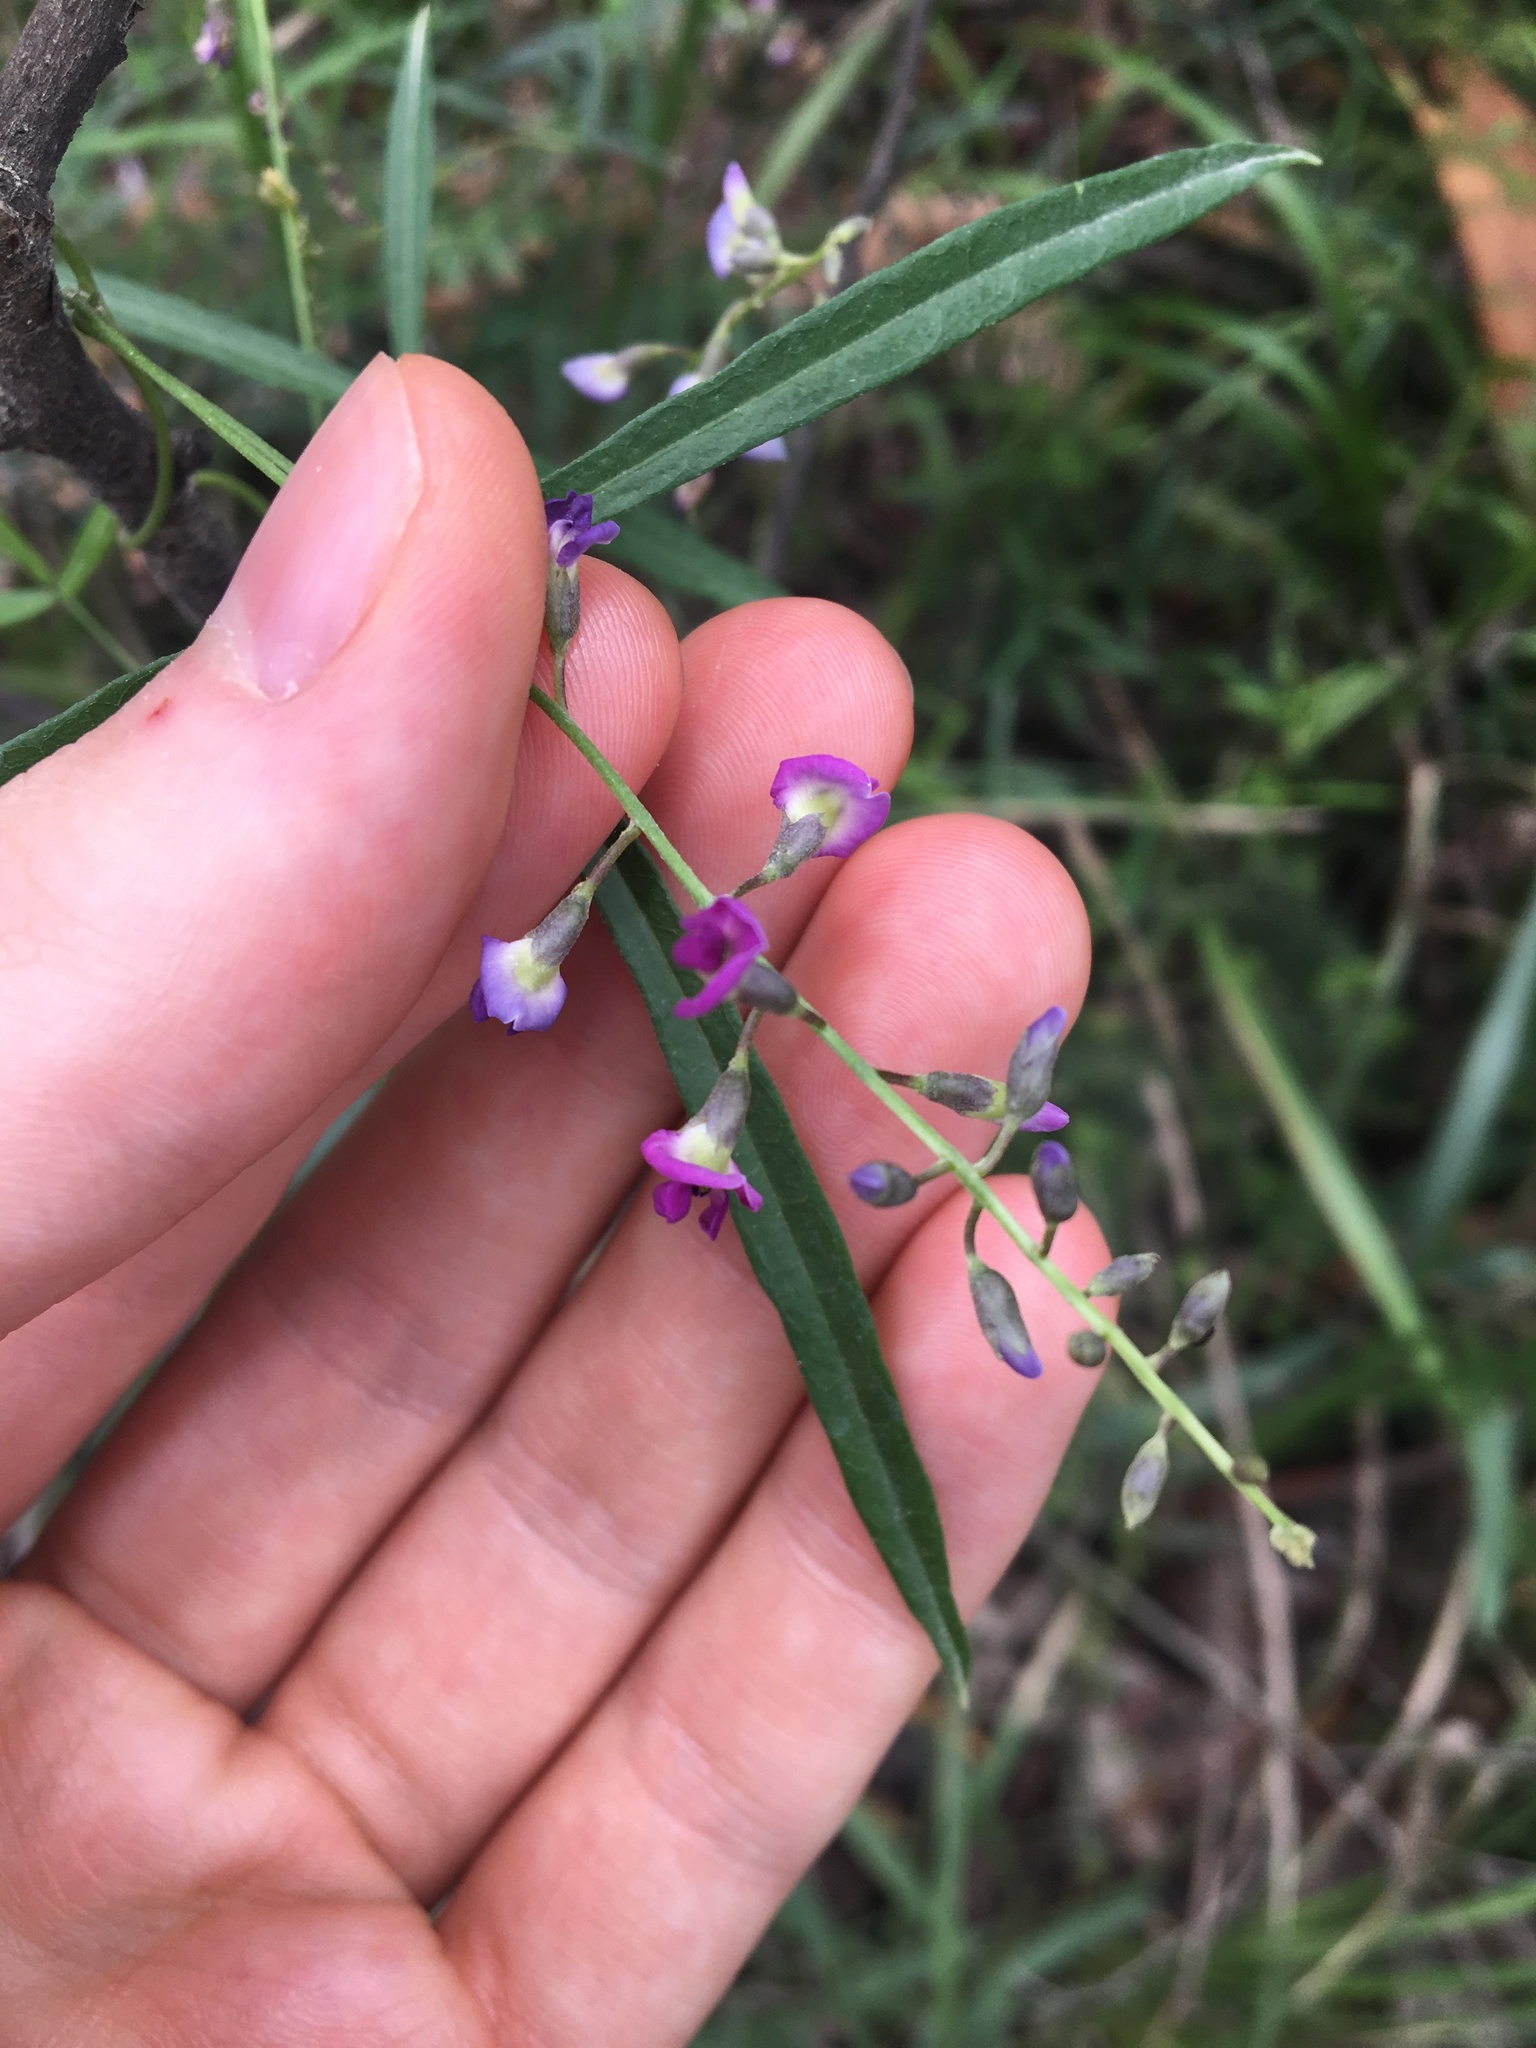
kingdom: Plantae
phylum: Tracheophyta
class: Magnoliopsida
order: Fabales
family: Fabaceae
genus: Glycine
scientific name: Glycine clandestina
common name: Twining glycine
